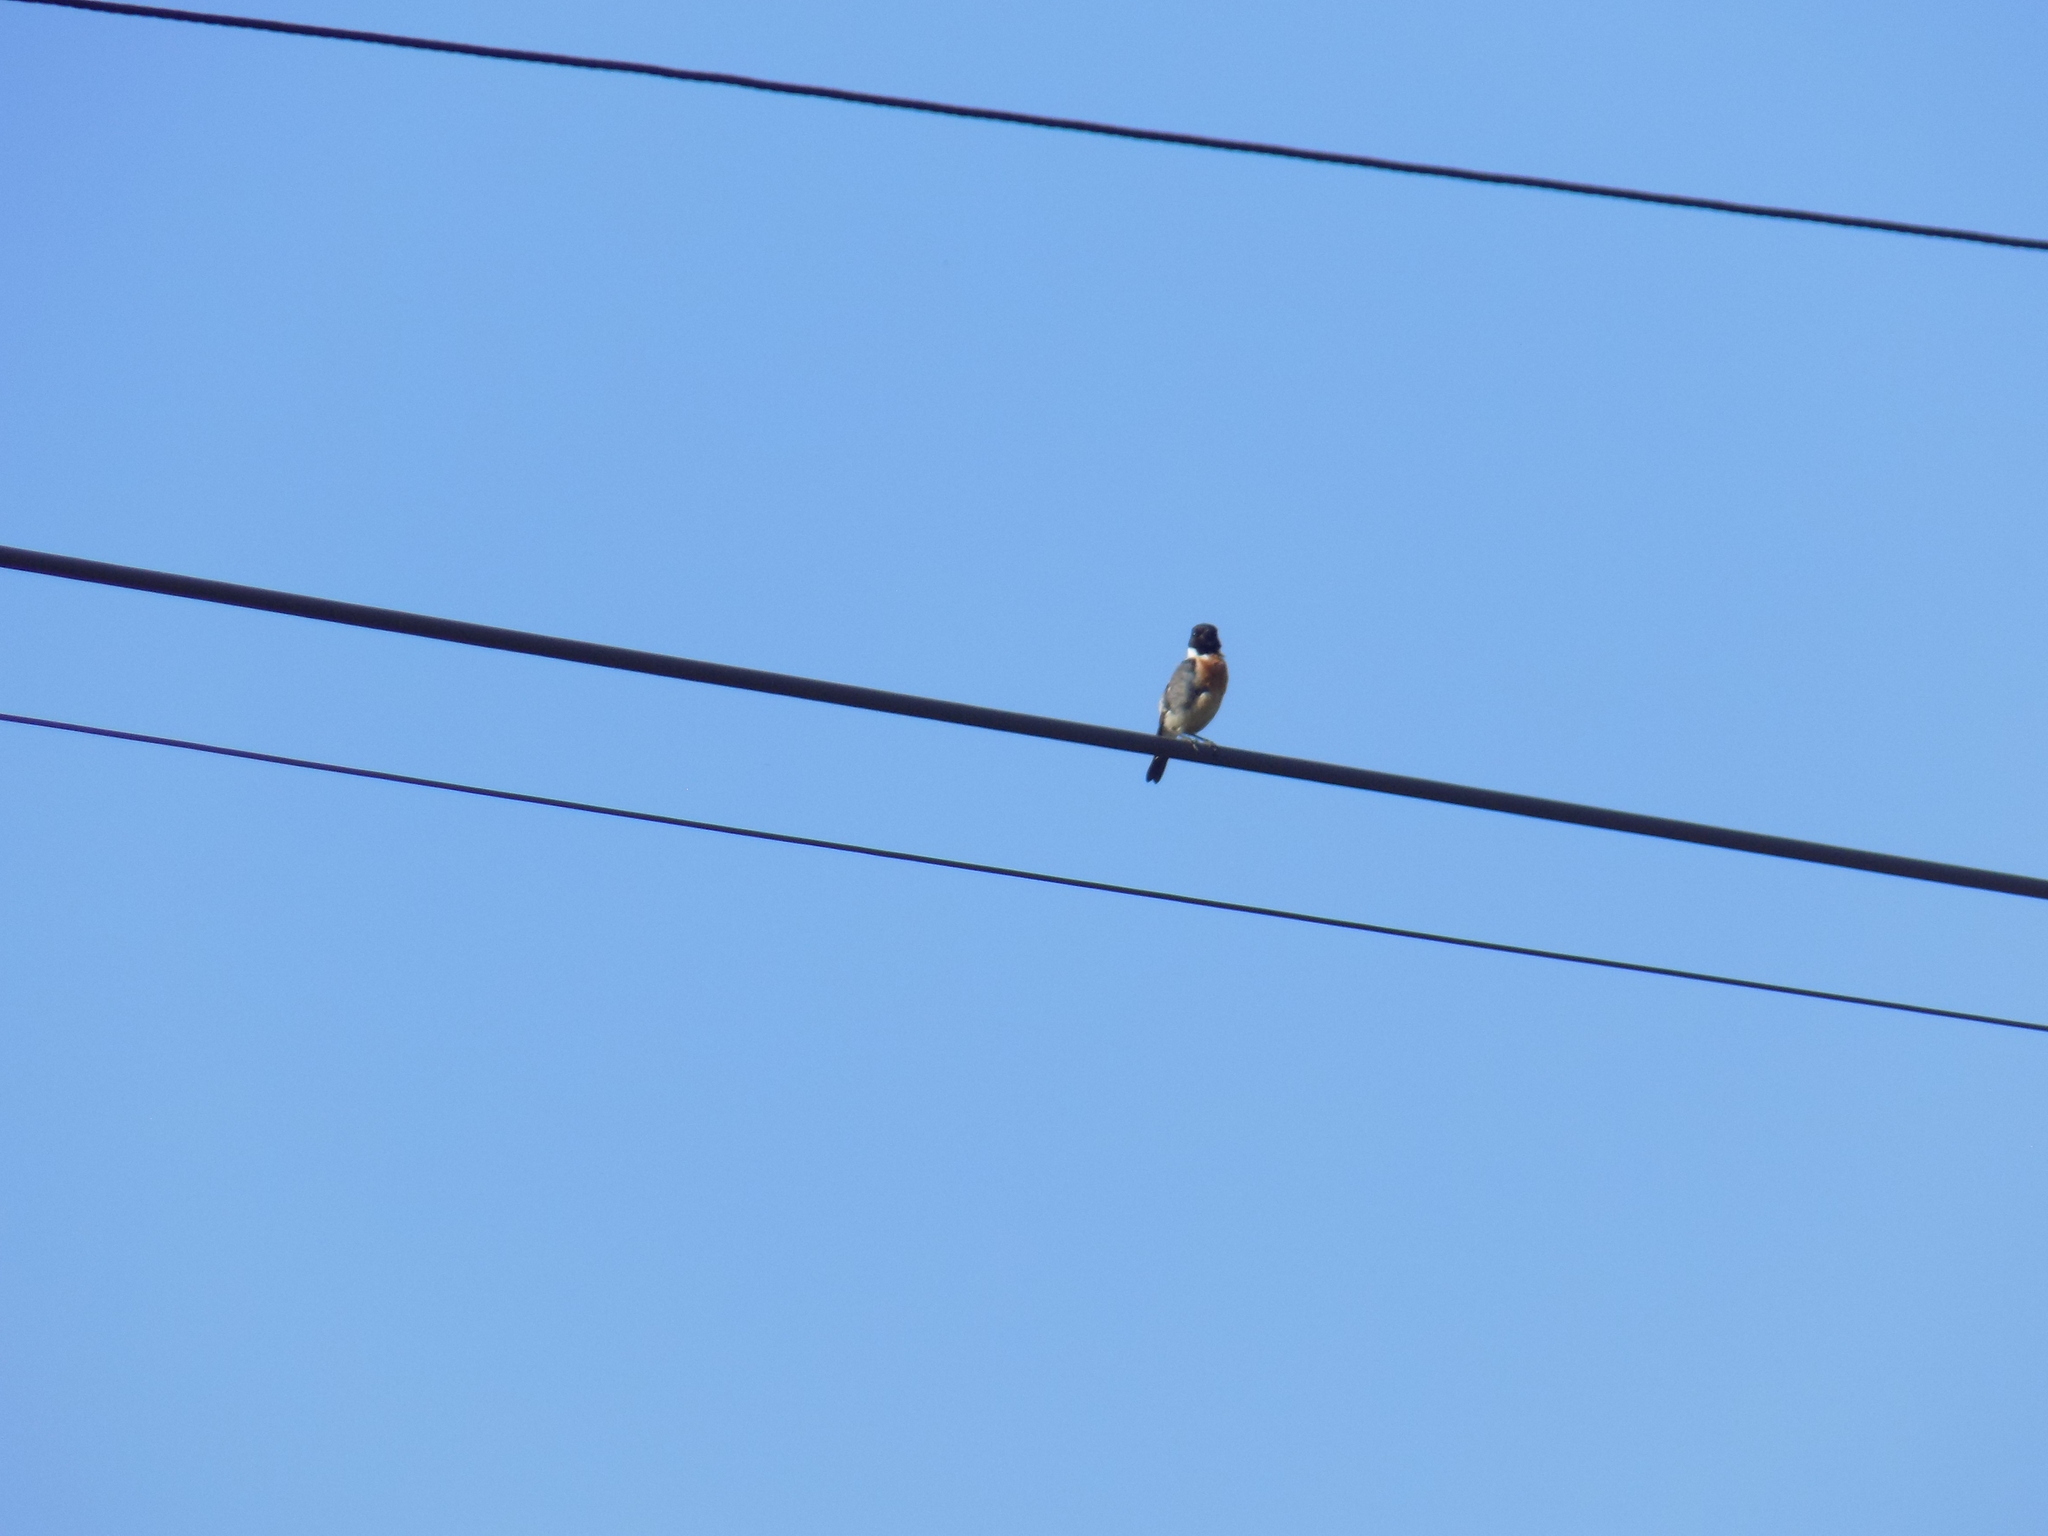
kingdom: Animalia
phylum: Chordata
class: Aves
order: Passeriformes
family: Muscicapidae
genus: Saxicola
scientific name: Saxicola maurus
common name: Siberian stonechat
